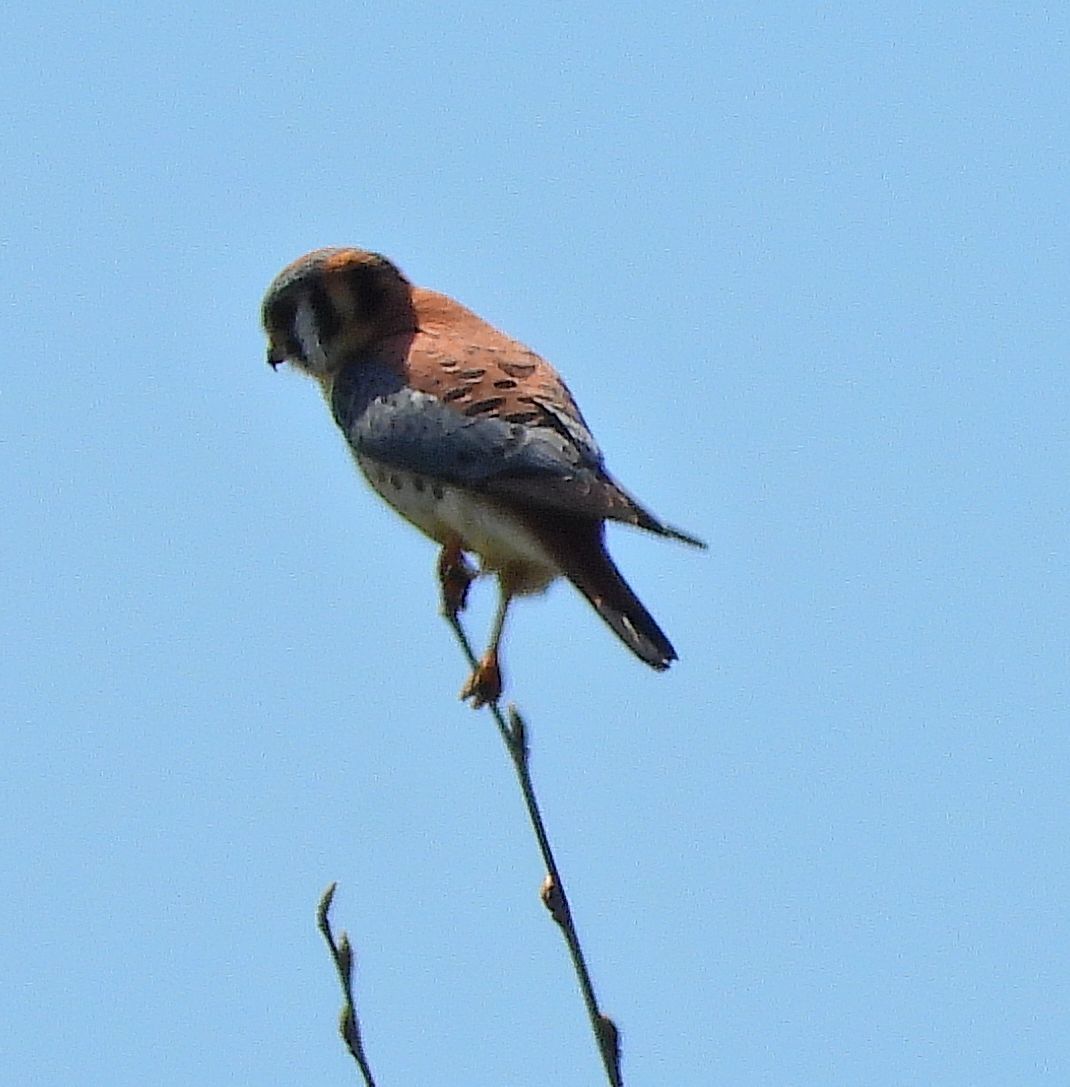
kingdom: Animalia
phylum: Chordata
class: Aves
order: Falconiformes
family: Falconidae
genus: Falco
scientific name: Falco sparverius
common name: American kestrel
